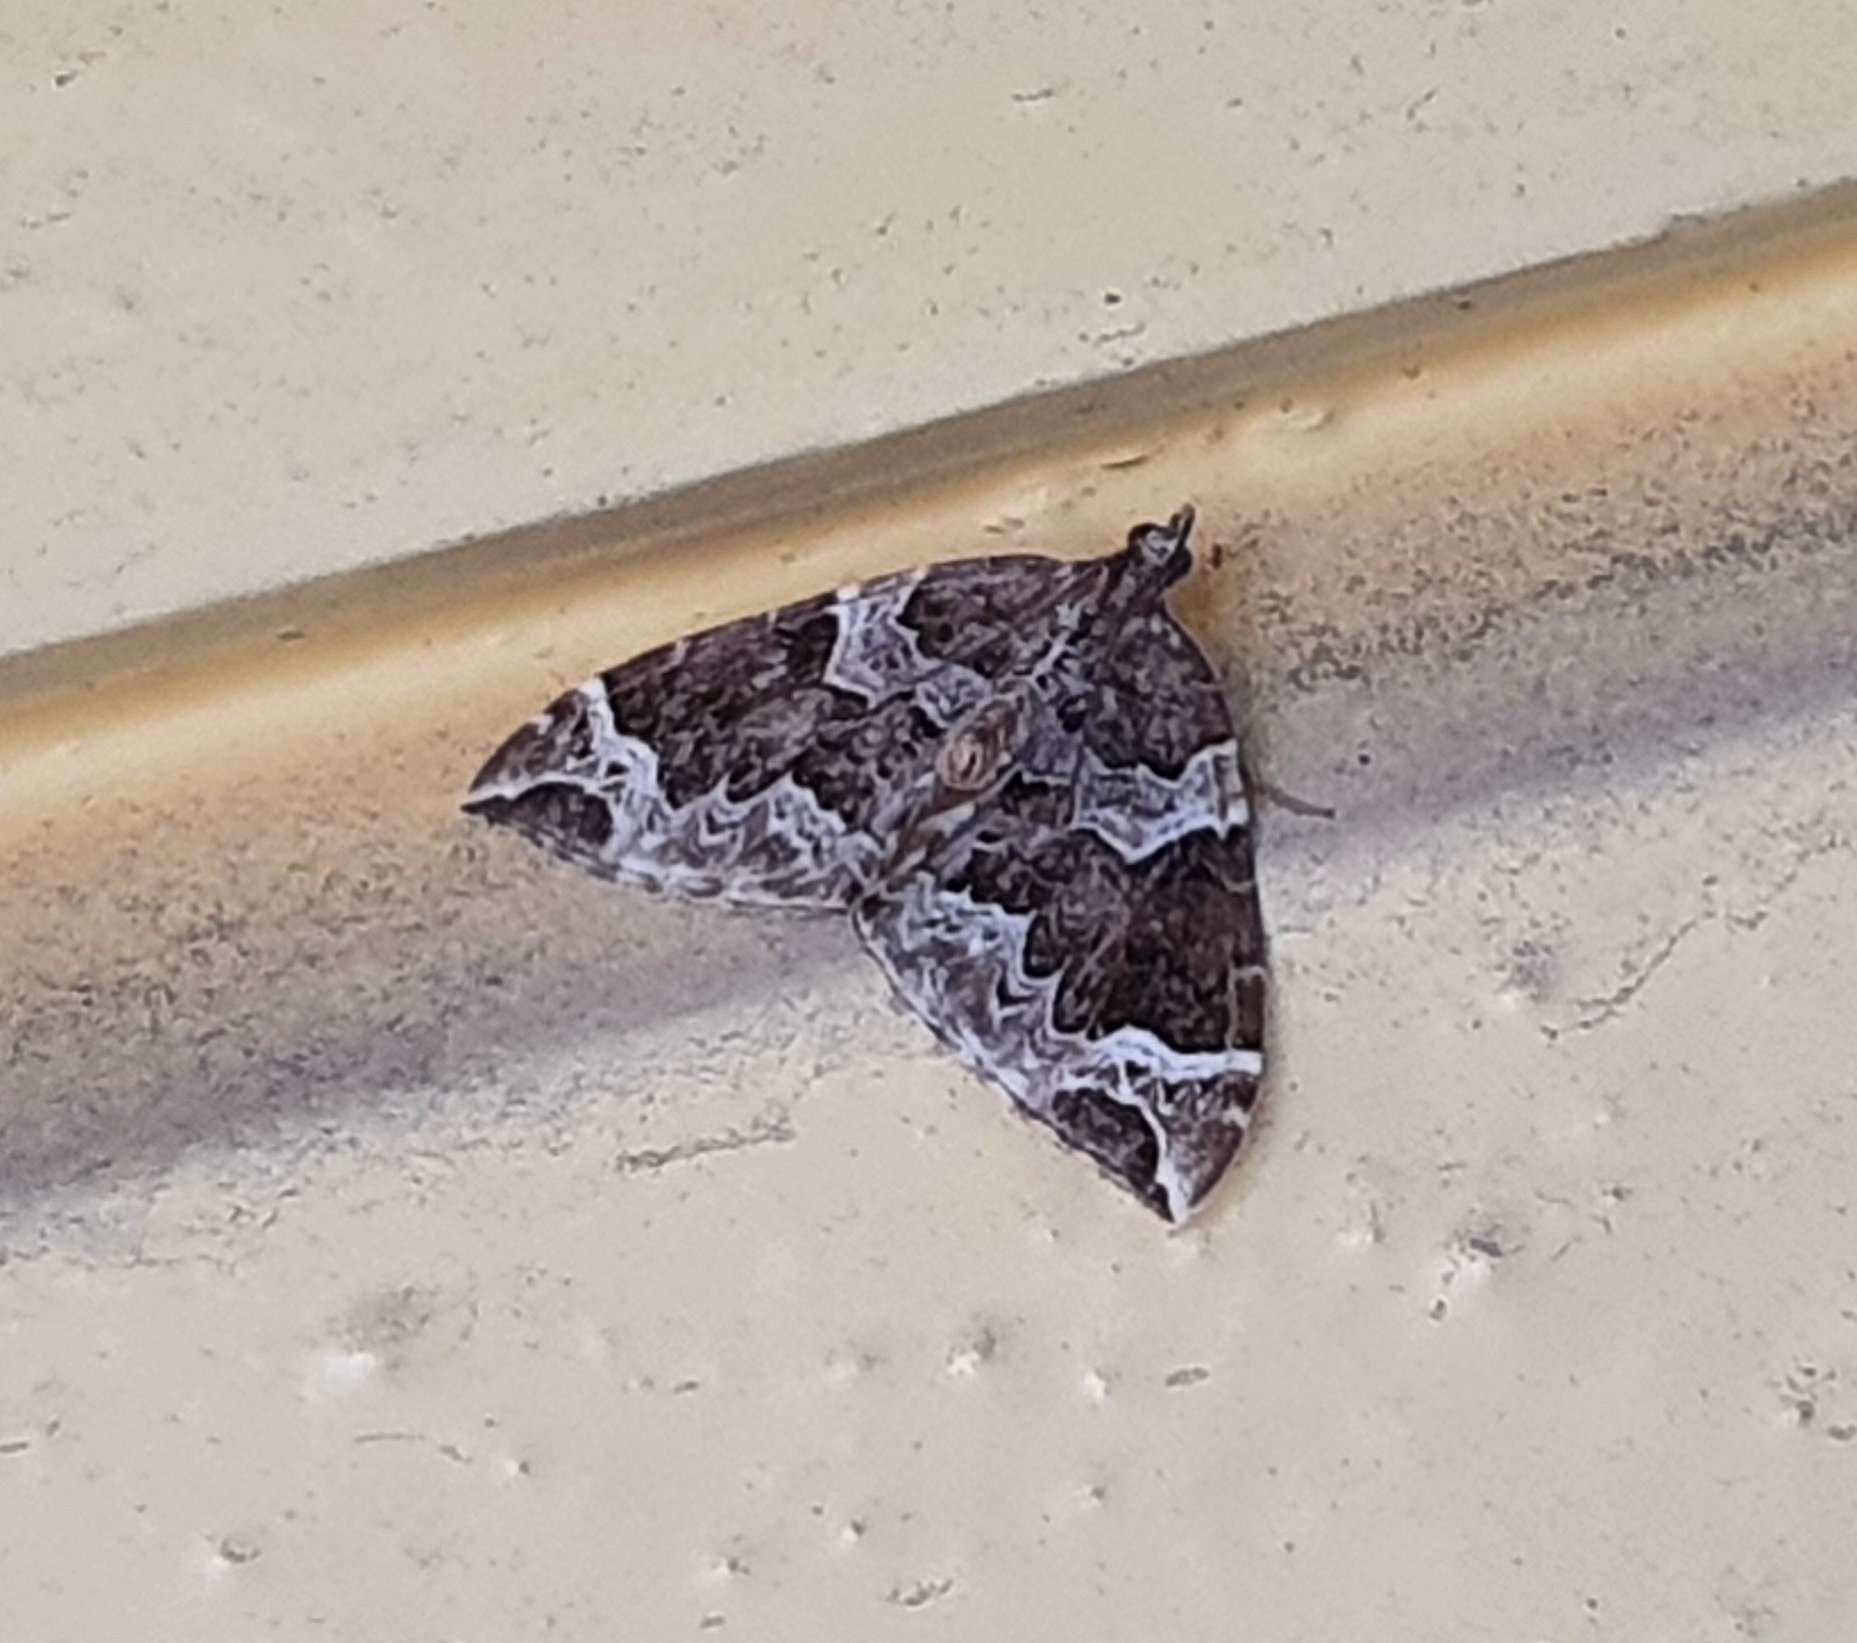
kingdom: Animalia
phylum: Arthropoda
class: Insecta
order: Lepidoptera
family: Geometridae
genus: Eulithis
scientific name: Eulithis prunata
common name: Phoenix
